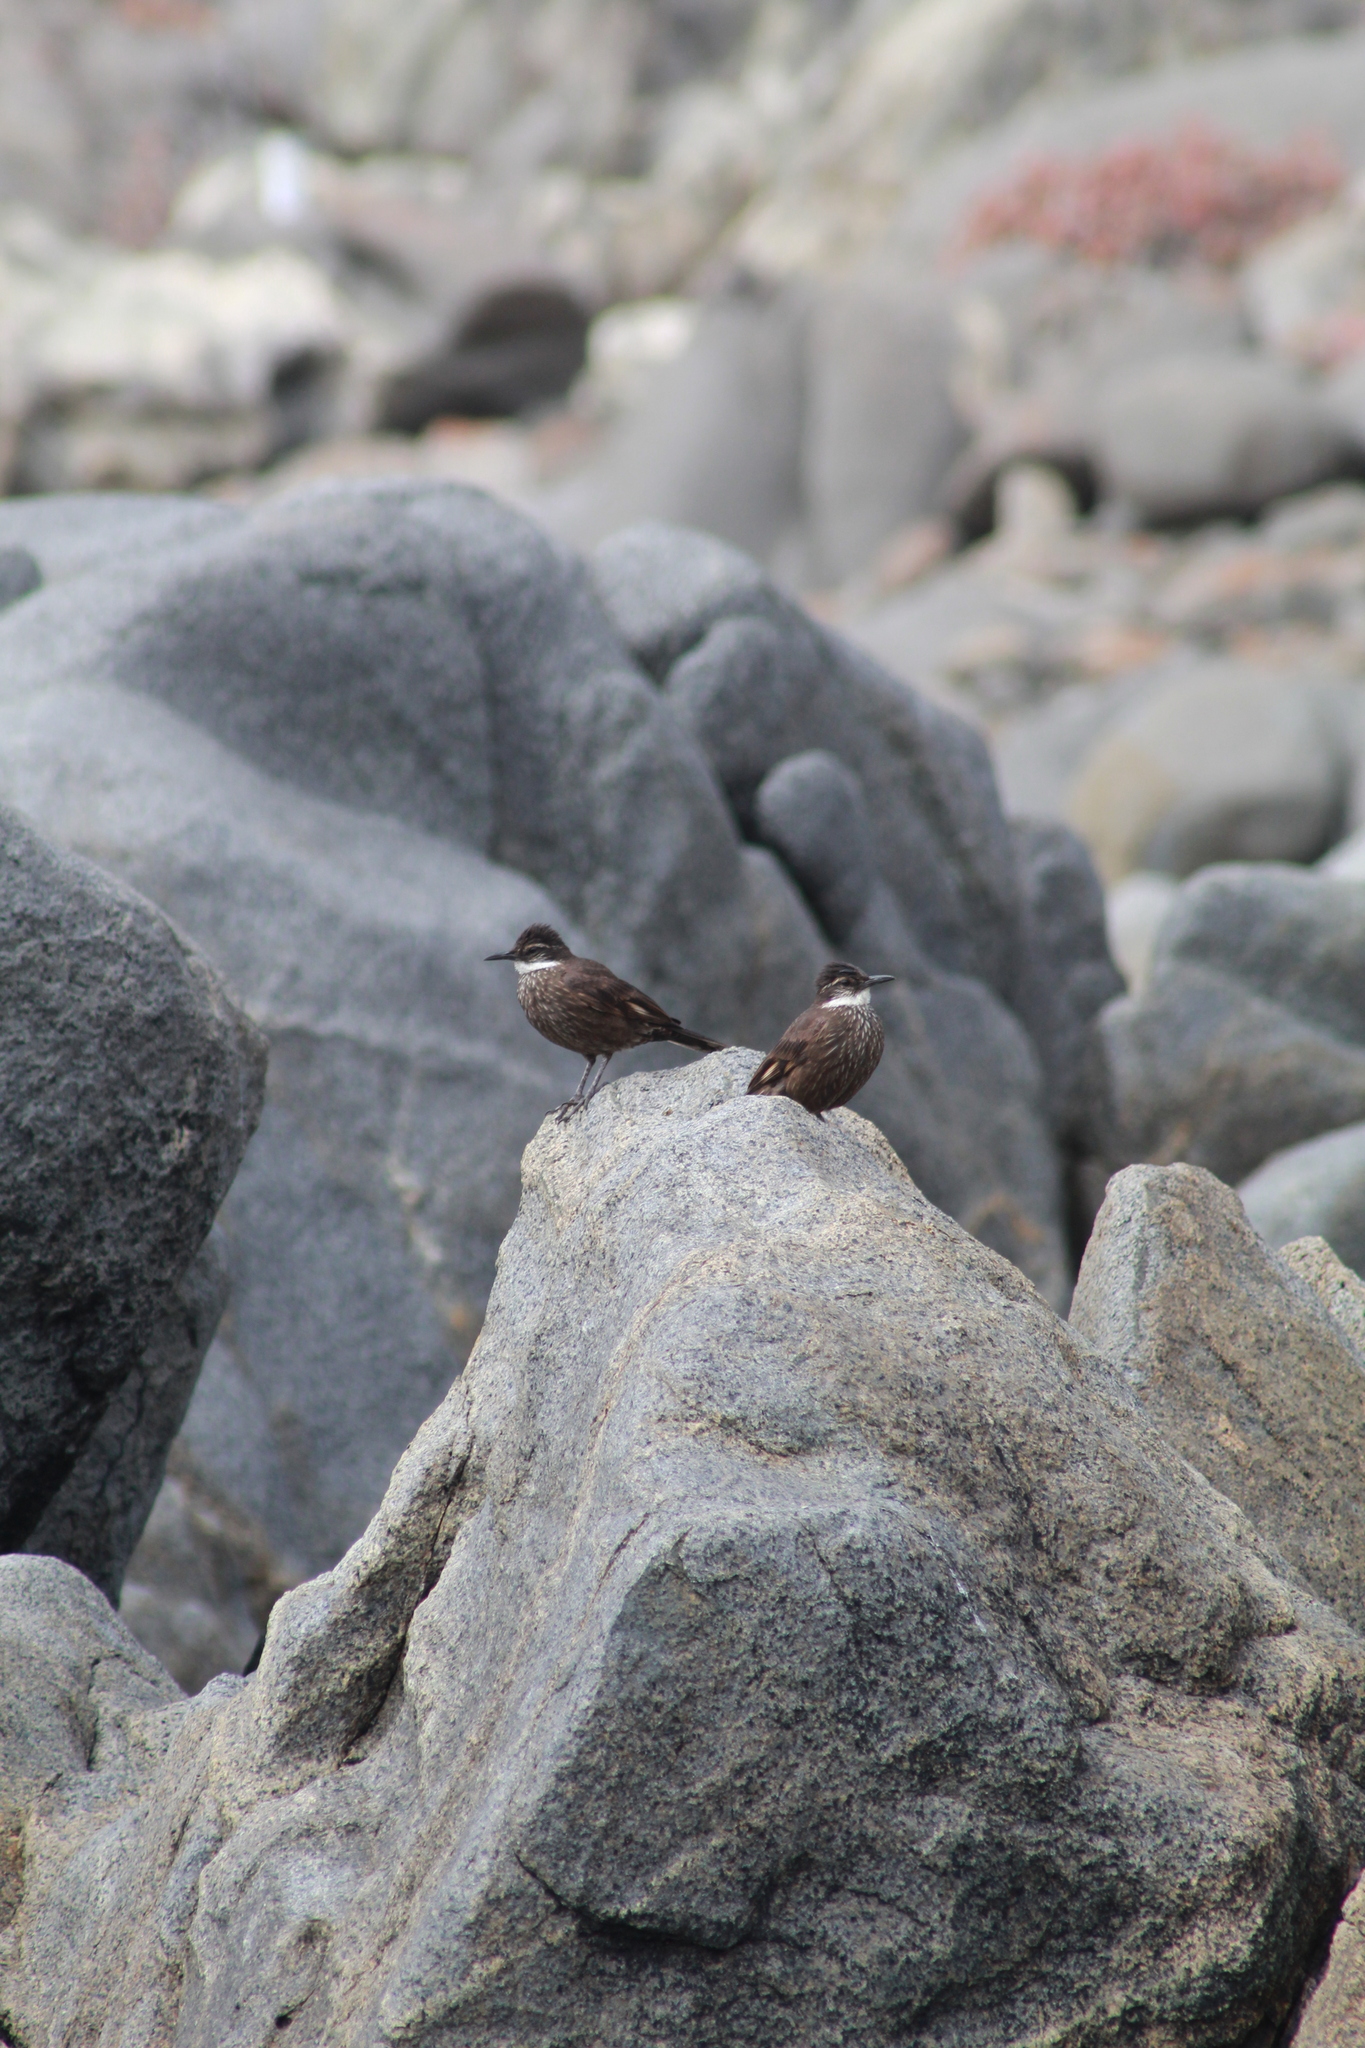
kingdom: Animalia
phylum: Chordata
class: Aves
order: Passeriformes
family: Furnariidae
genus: Cinclodes
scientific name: Cinclodes nigrofumosus
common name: Chilean seaside cinclodes
